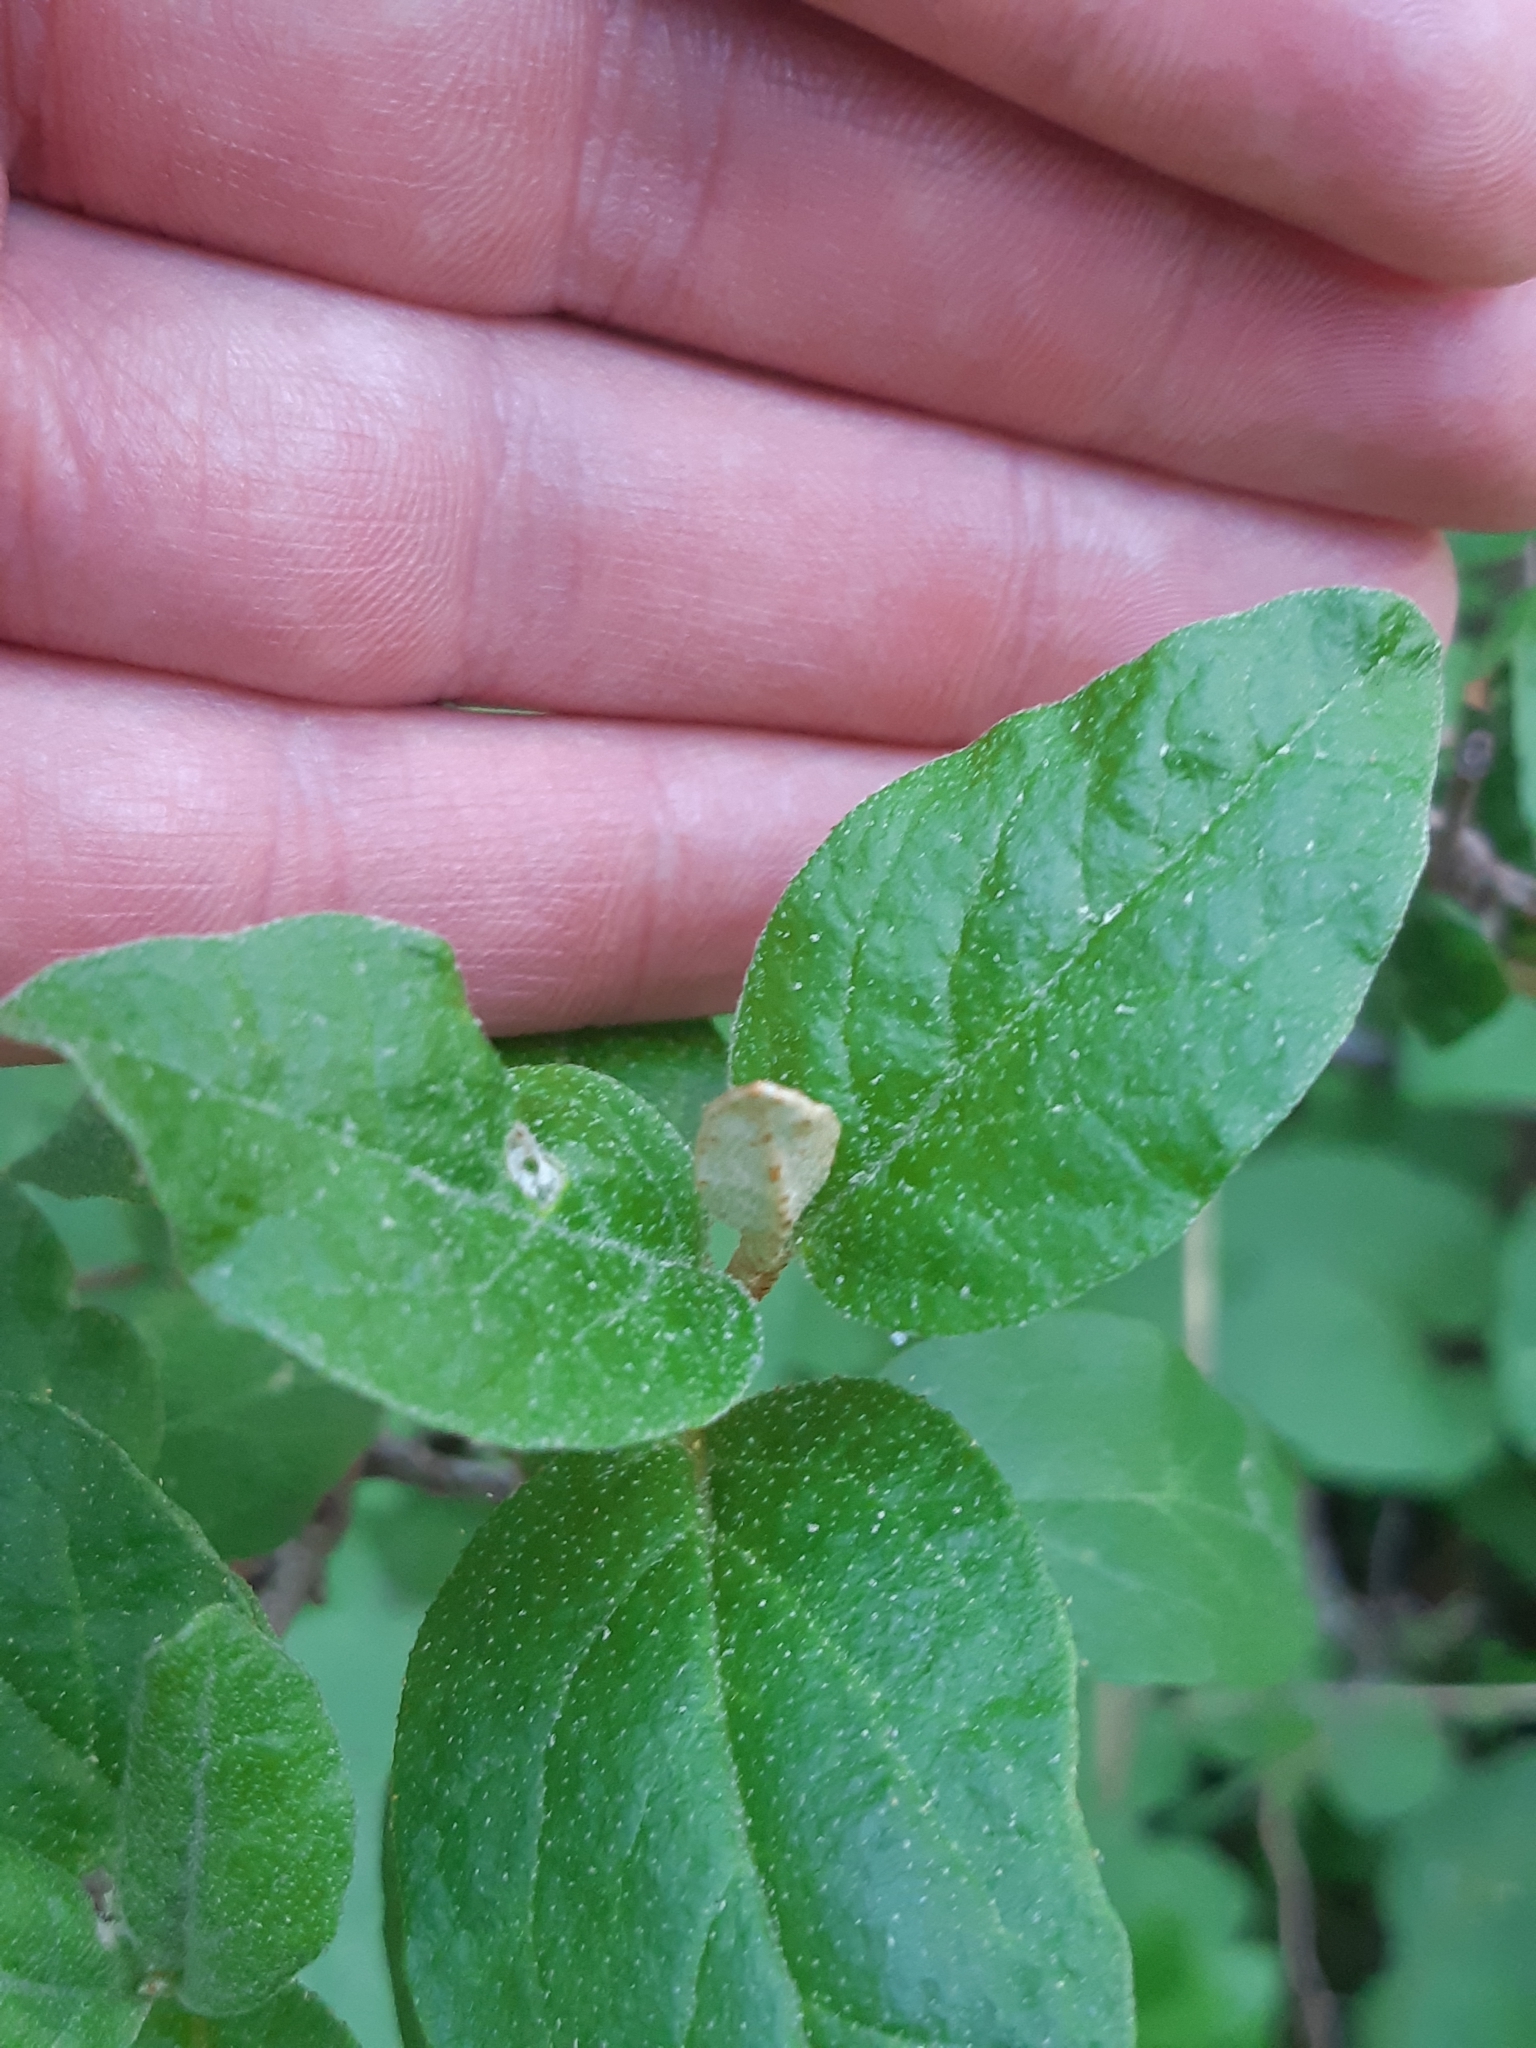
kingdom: Plantae
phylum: Tracheophyta
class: Magnoliopsida
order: Rosales
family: Elaeagnaceae
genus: Shepherdia
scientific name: Shepherdia canadensis
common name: Soapberry
